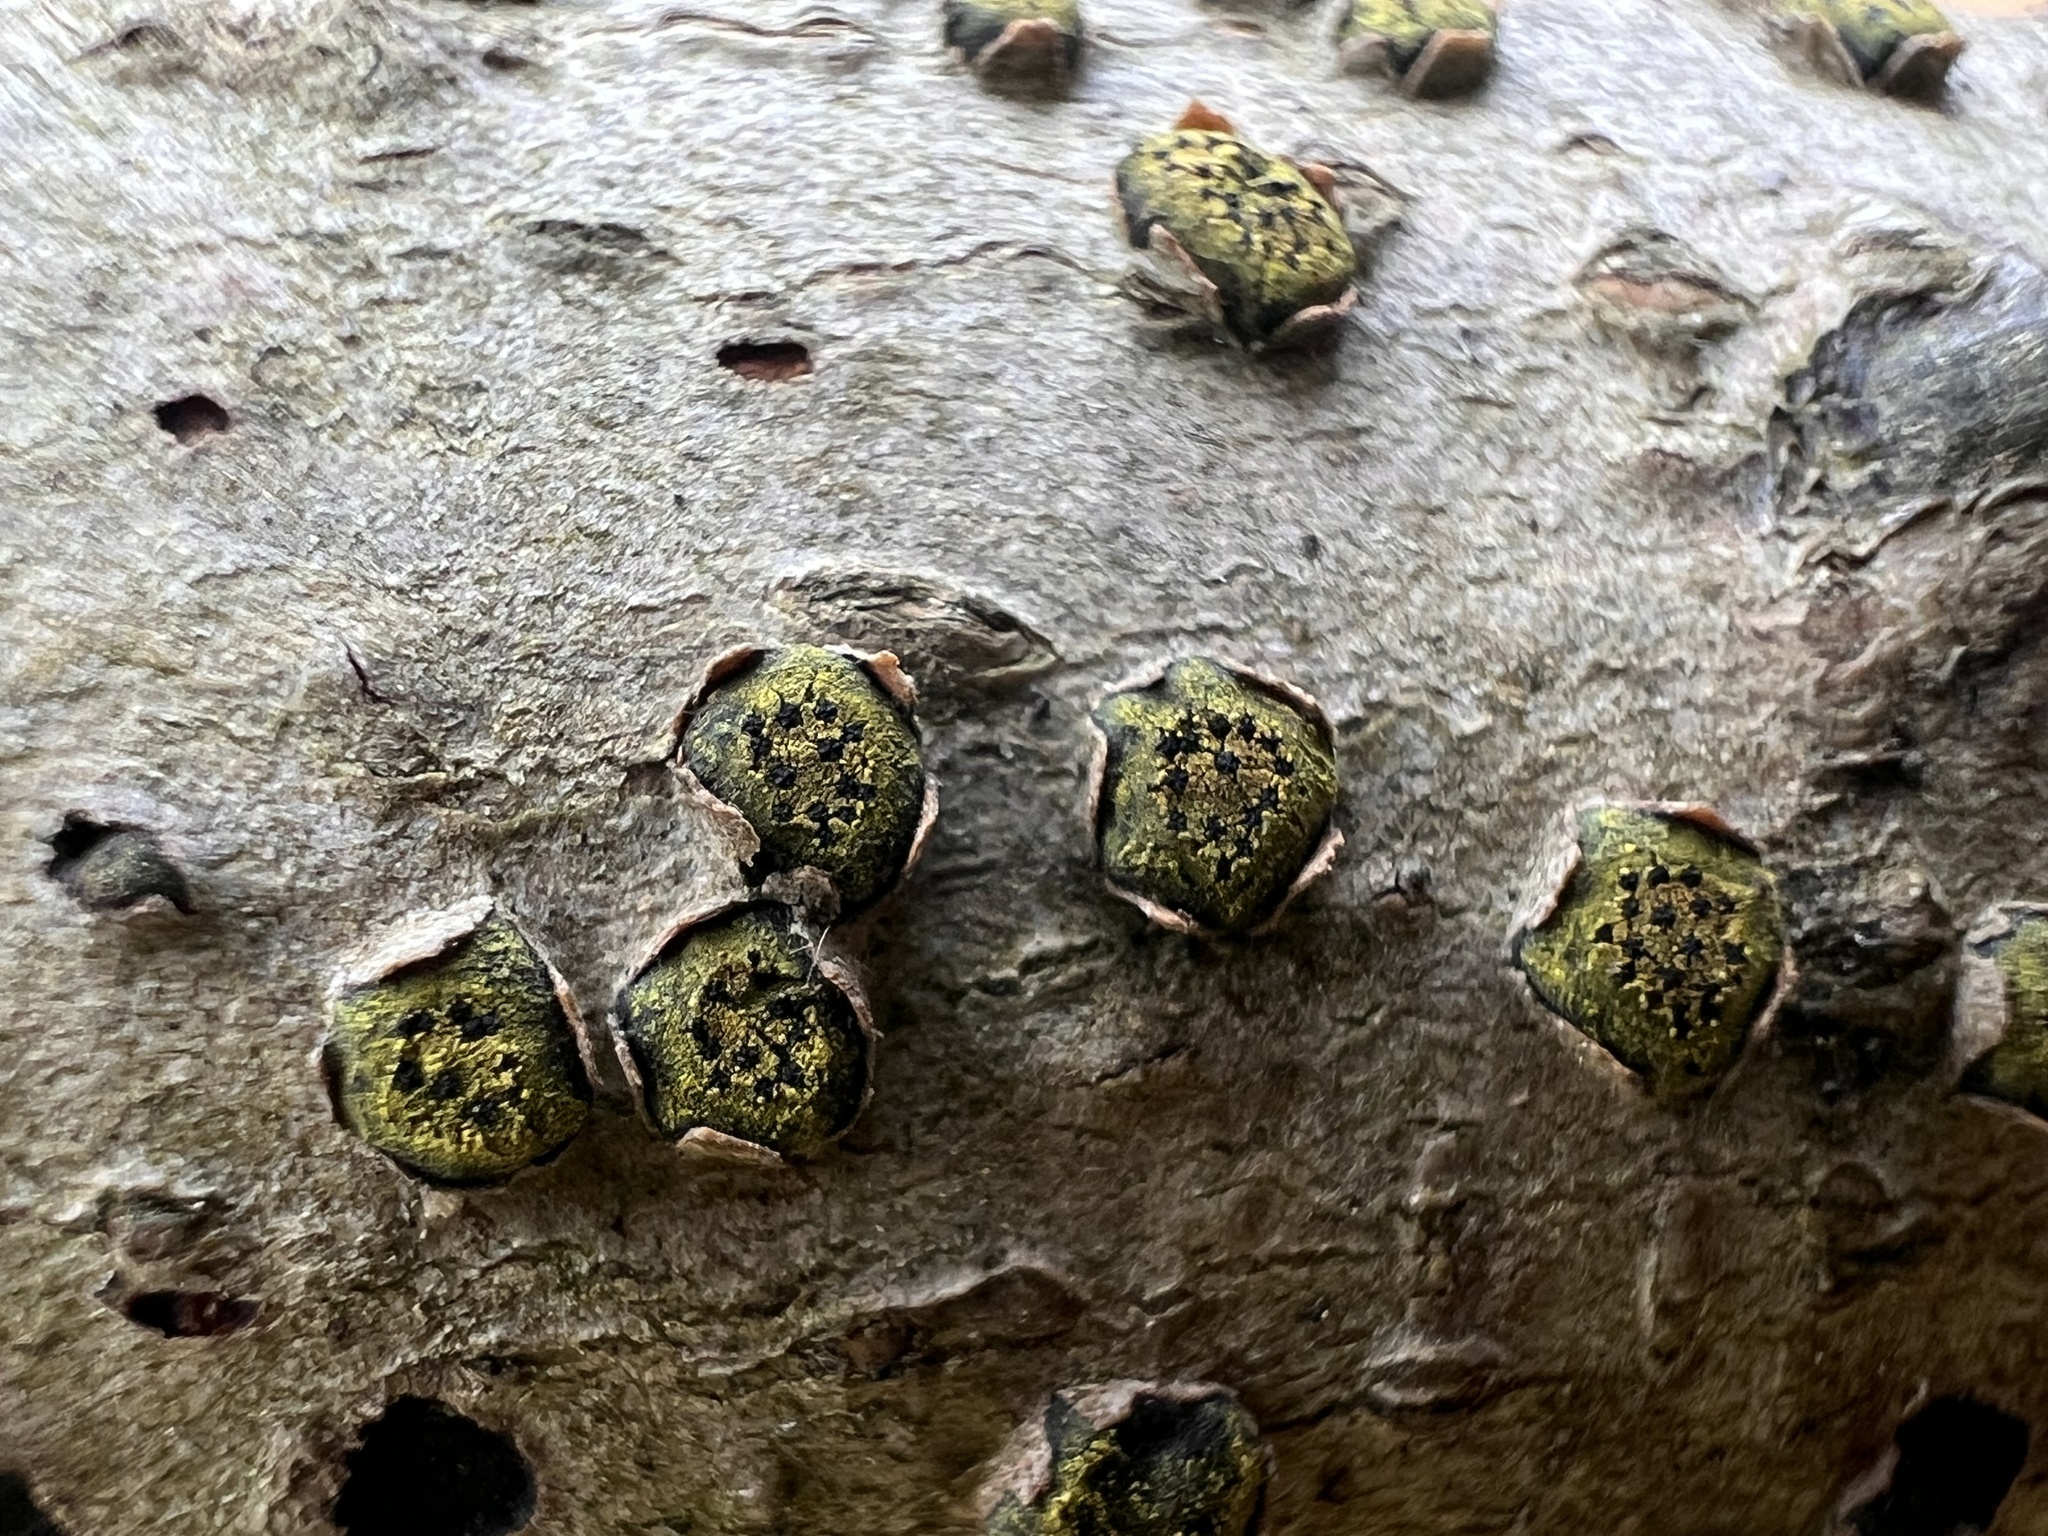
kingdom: Fungi
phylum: Ascomycota
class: Sordariomycetes
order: Xylariales
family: Diatrypaceae
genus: Diatrype
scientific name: Diatrype virescens
